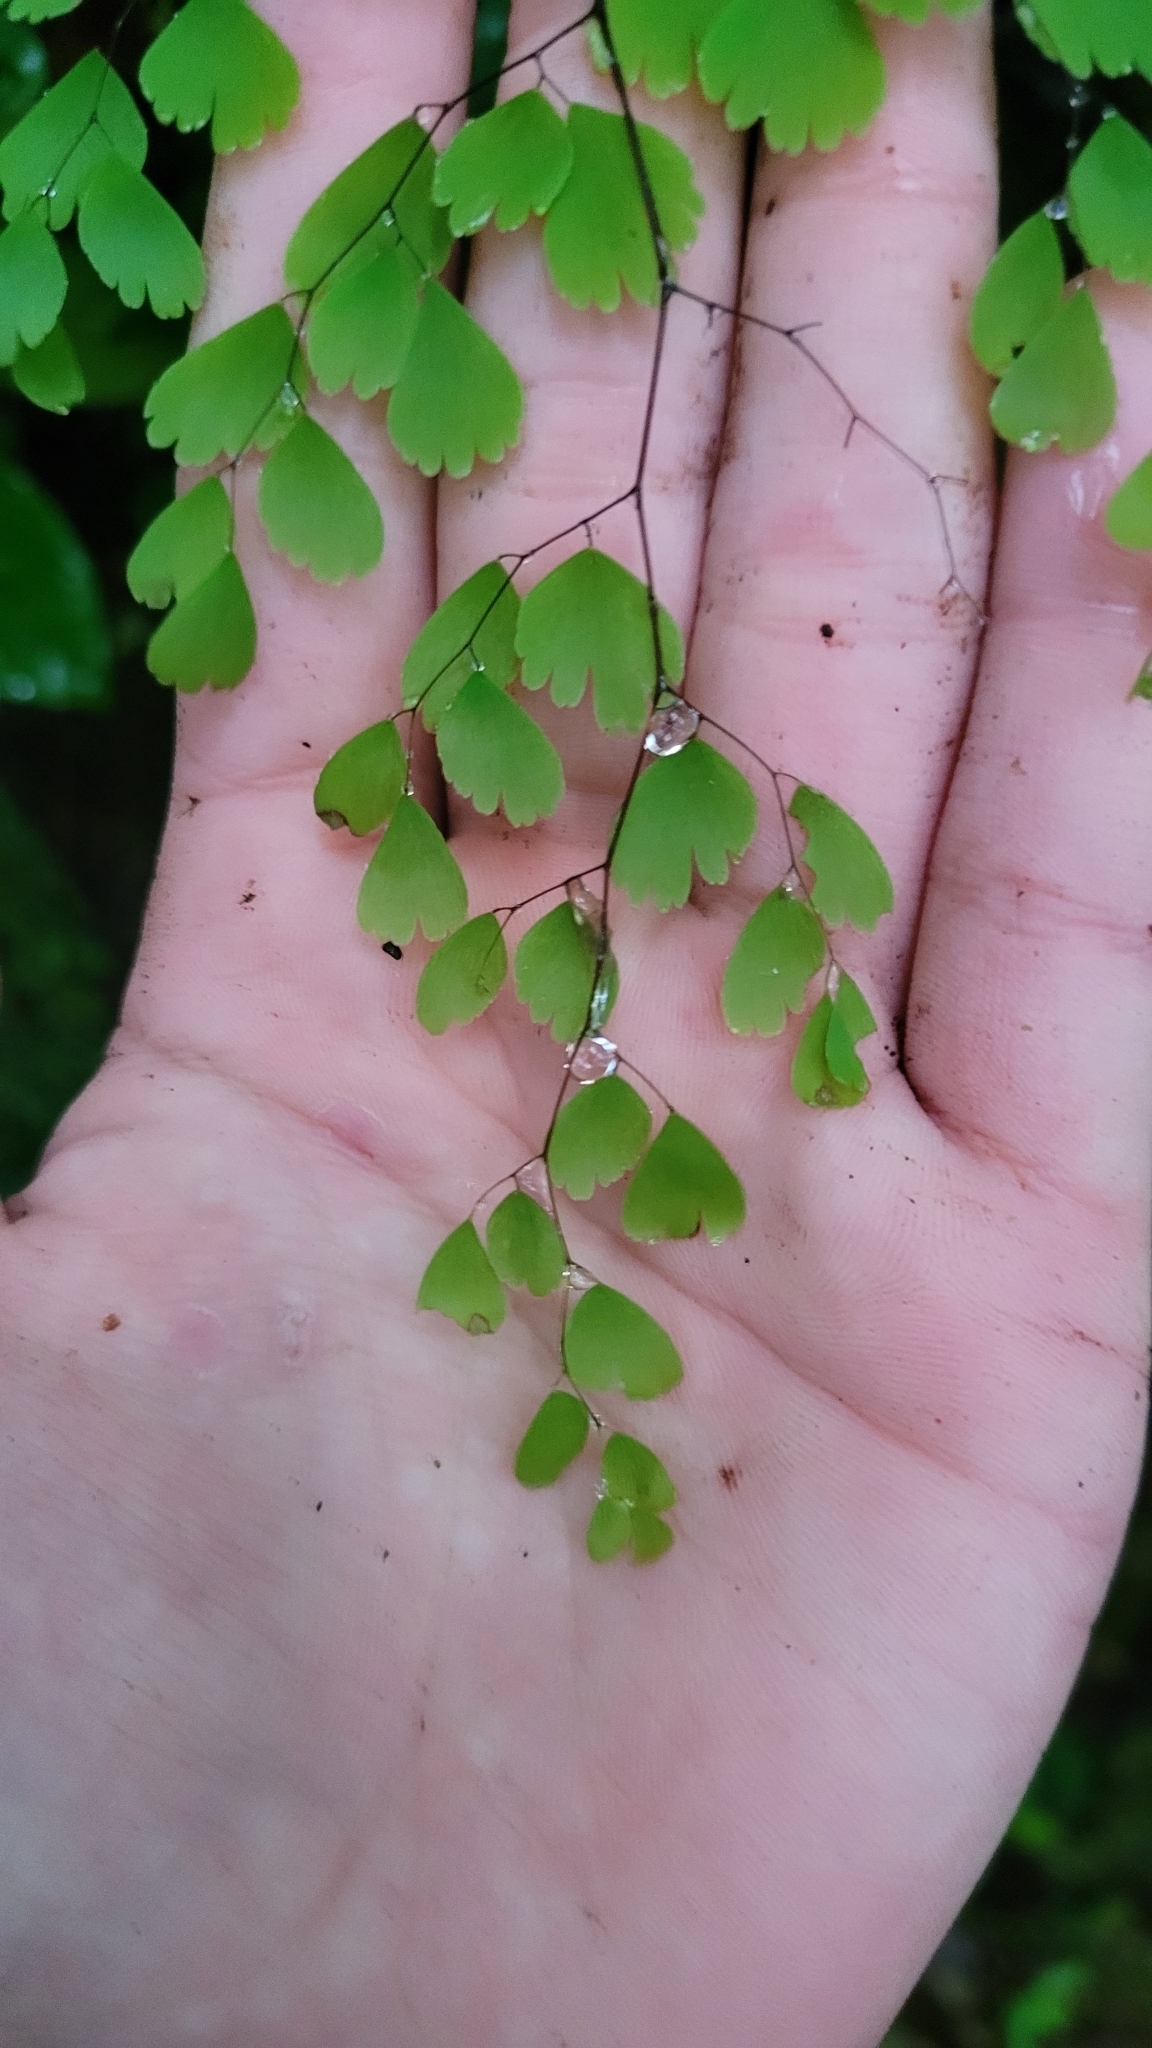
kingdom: Plantae
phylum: Tracheophyta
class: Polypodiopsida
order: Polypodiales
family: Pteridaceae
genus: Adiantum
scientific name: Adiantum andicola
